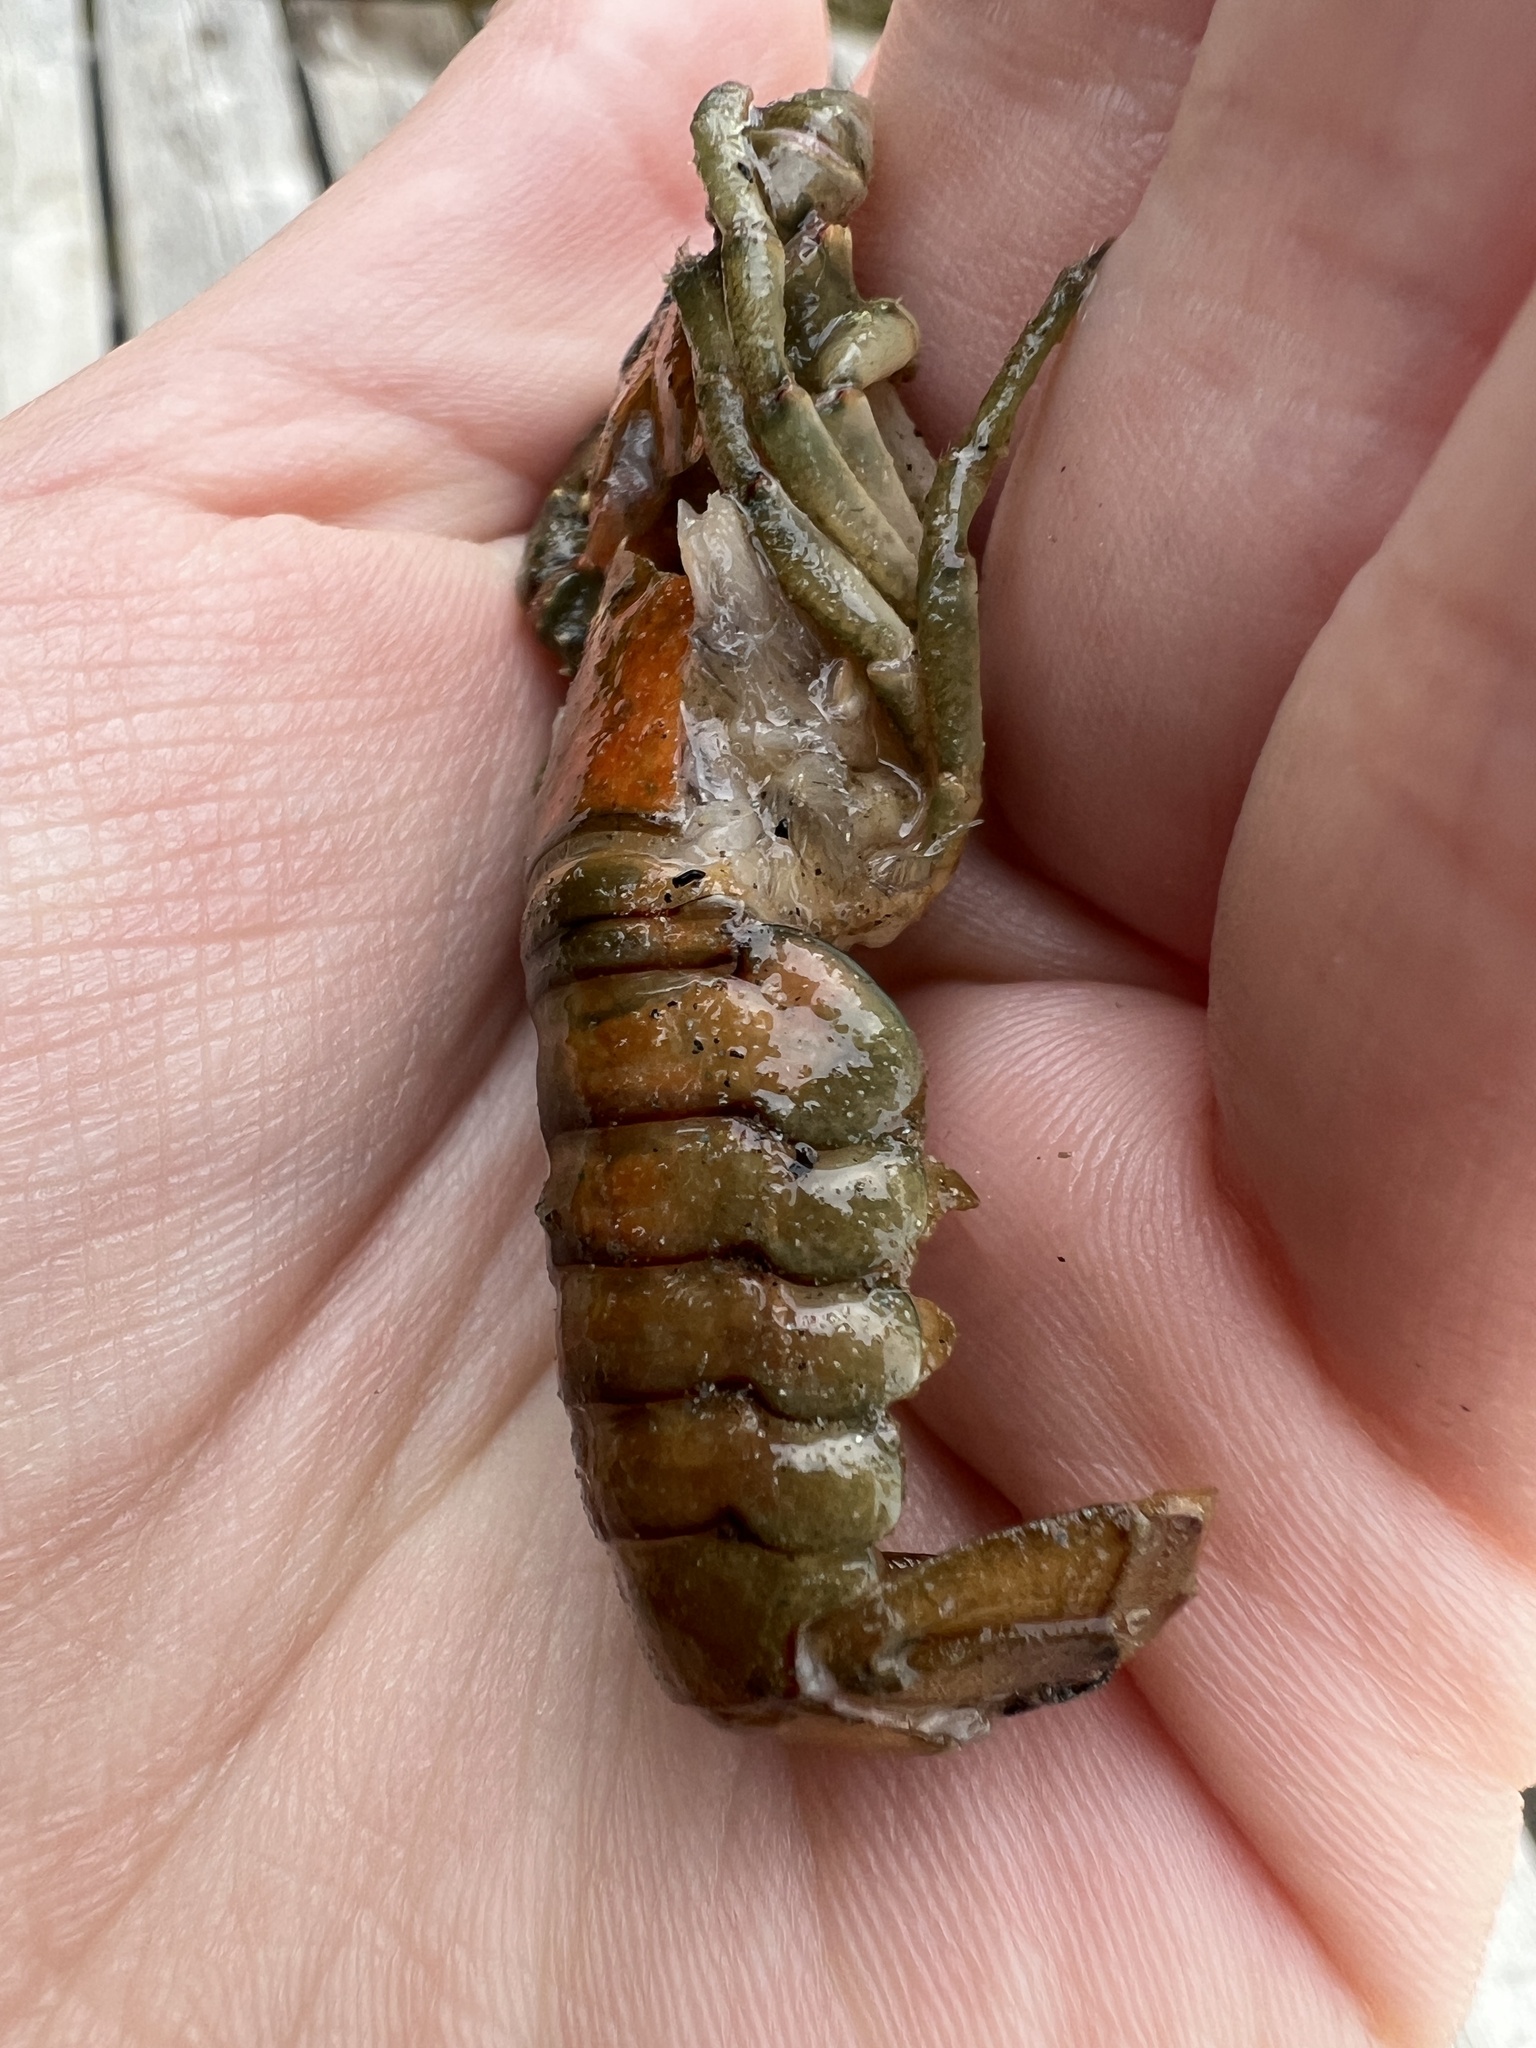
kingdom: Animalia
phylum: Arthropoda
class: Malacostraca
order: Decapoda
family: Cambaridae
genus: Faxonius
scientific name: Faxonius virilis
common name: Virile crayfish
